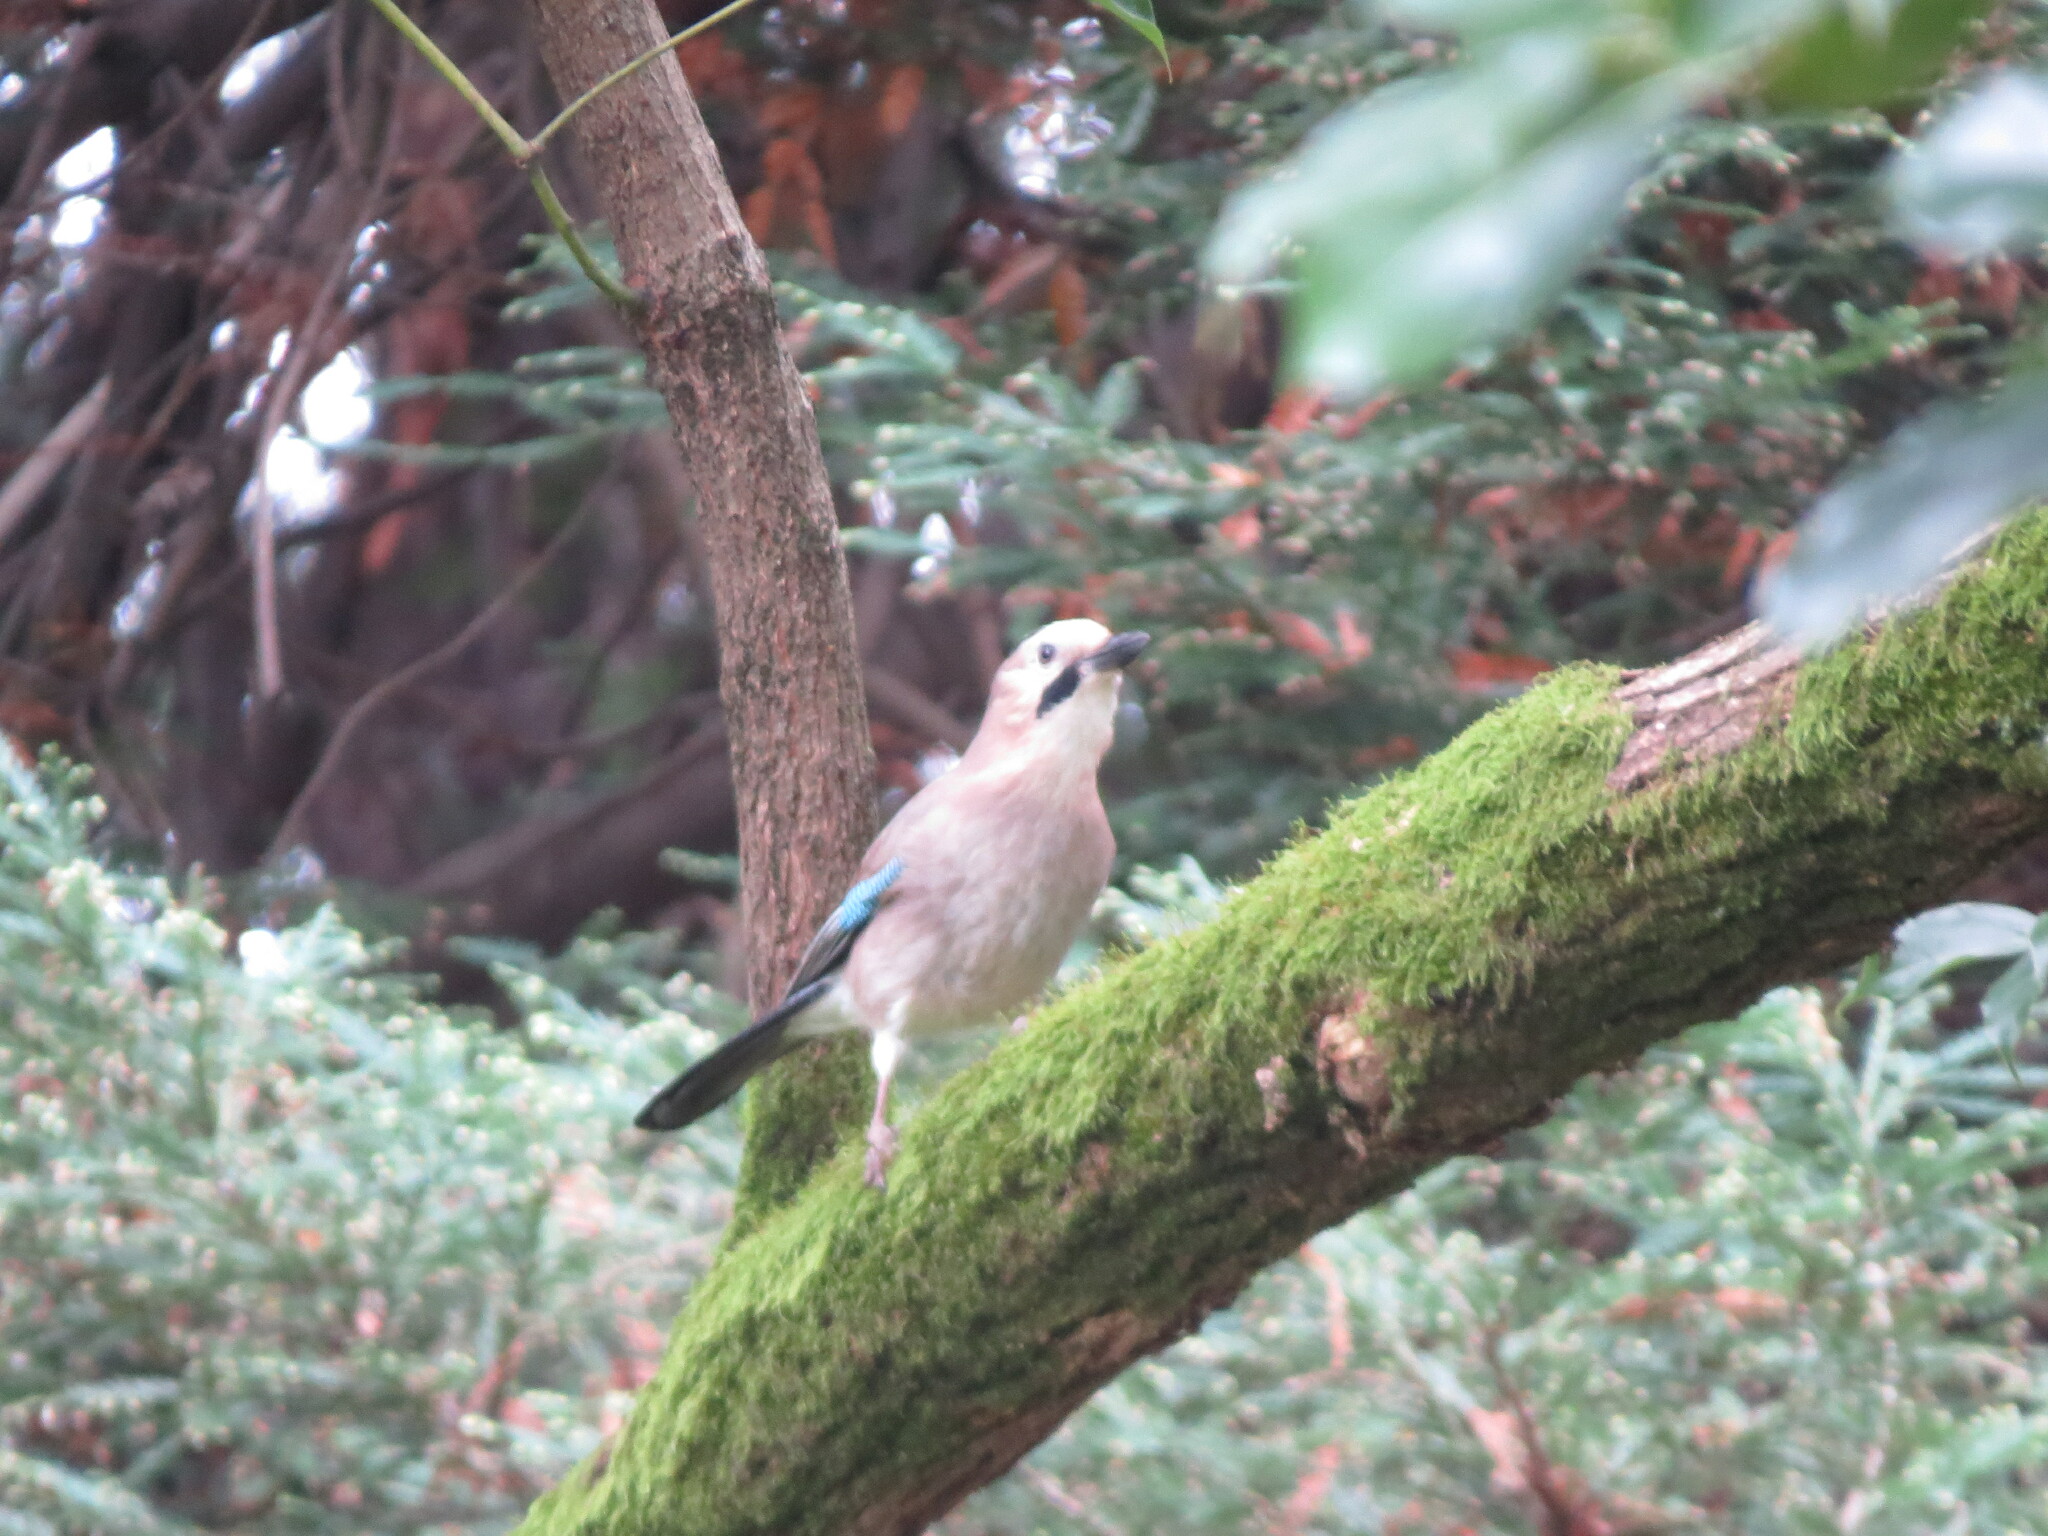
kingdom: Animalia
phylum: Chordata
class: Aves
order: Passeriformes
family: Corvidae
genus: Garrulus
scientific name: Garrulus glandarius
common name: Eurasian jay
